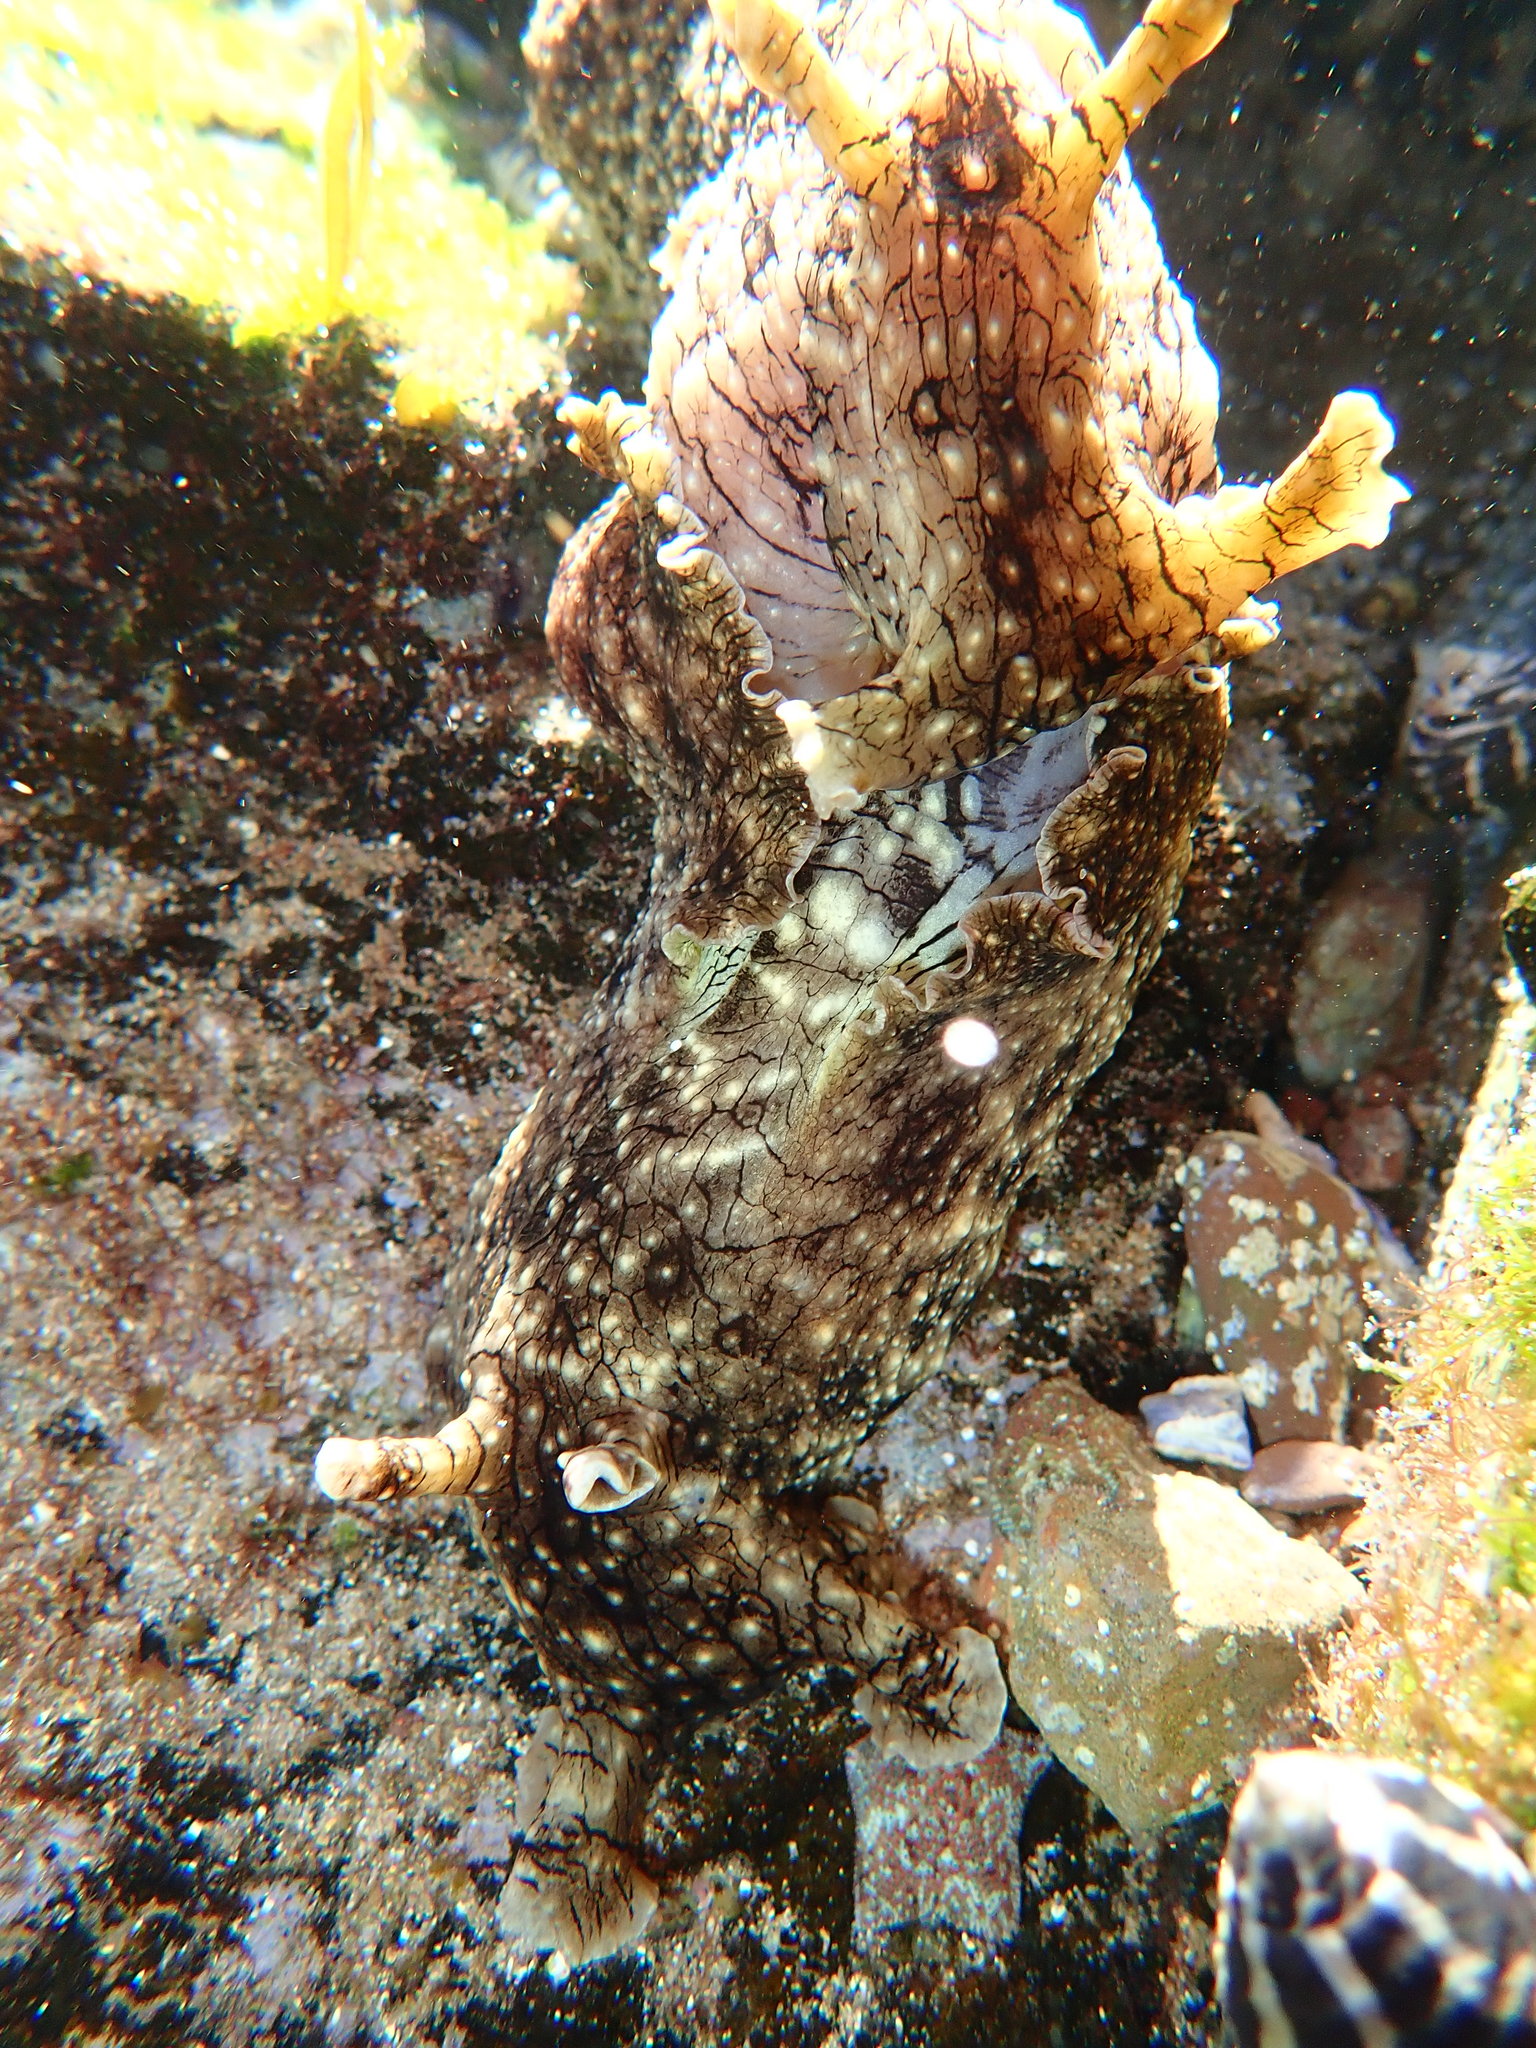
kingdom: Animalia
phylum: Mollusca
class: Gastropoda
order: Aplysiida
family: Aplysiidae
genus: Aplysia
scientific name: Aplysia argus
